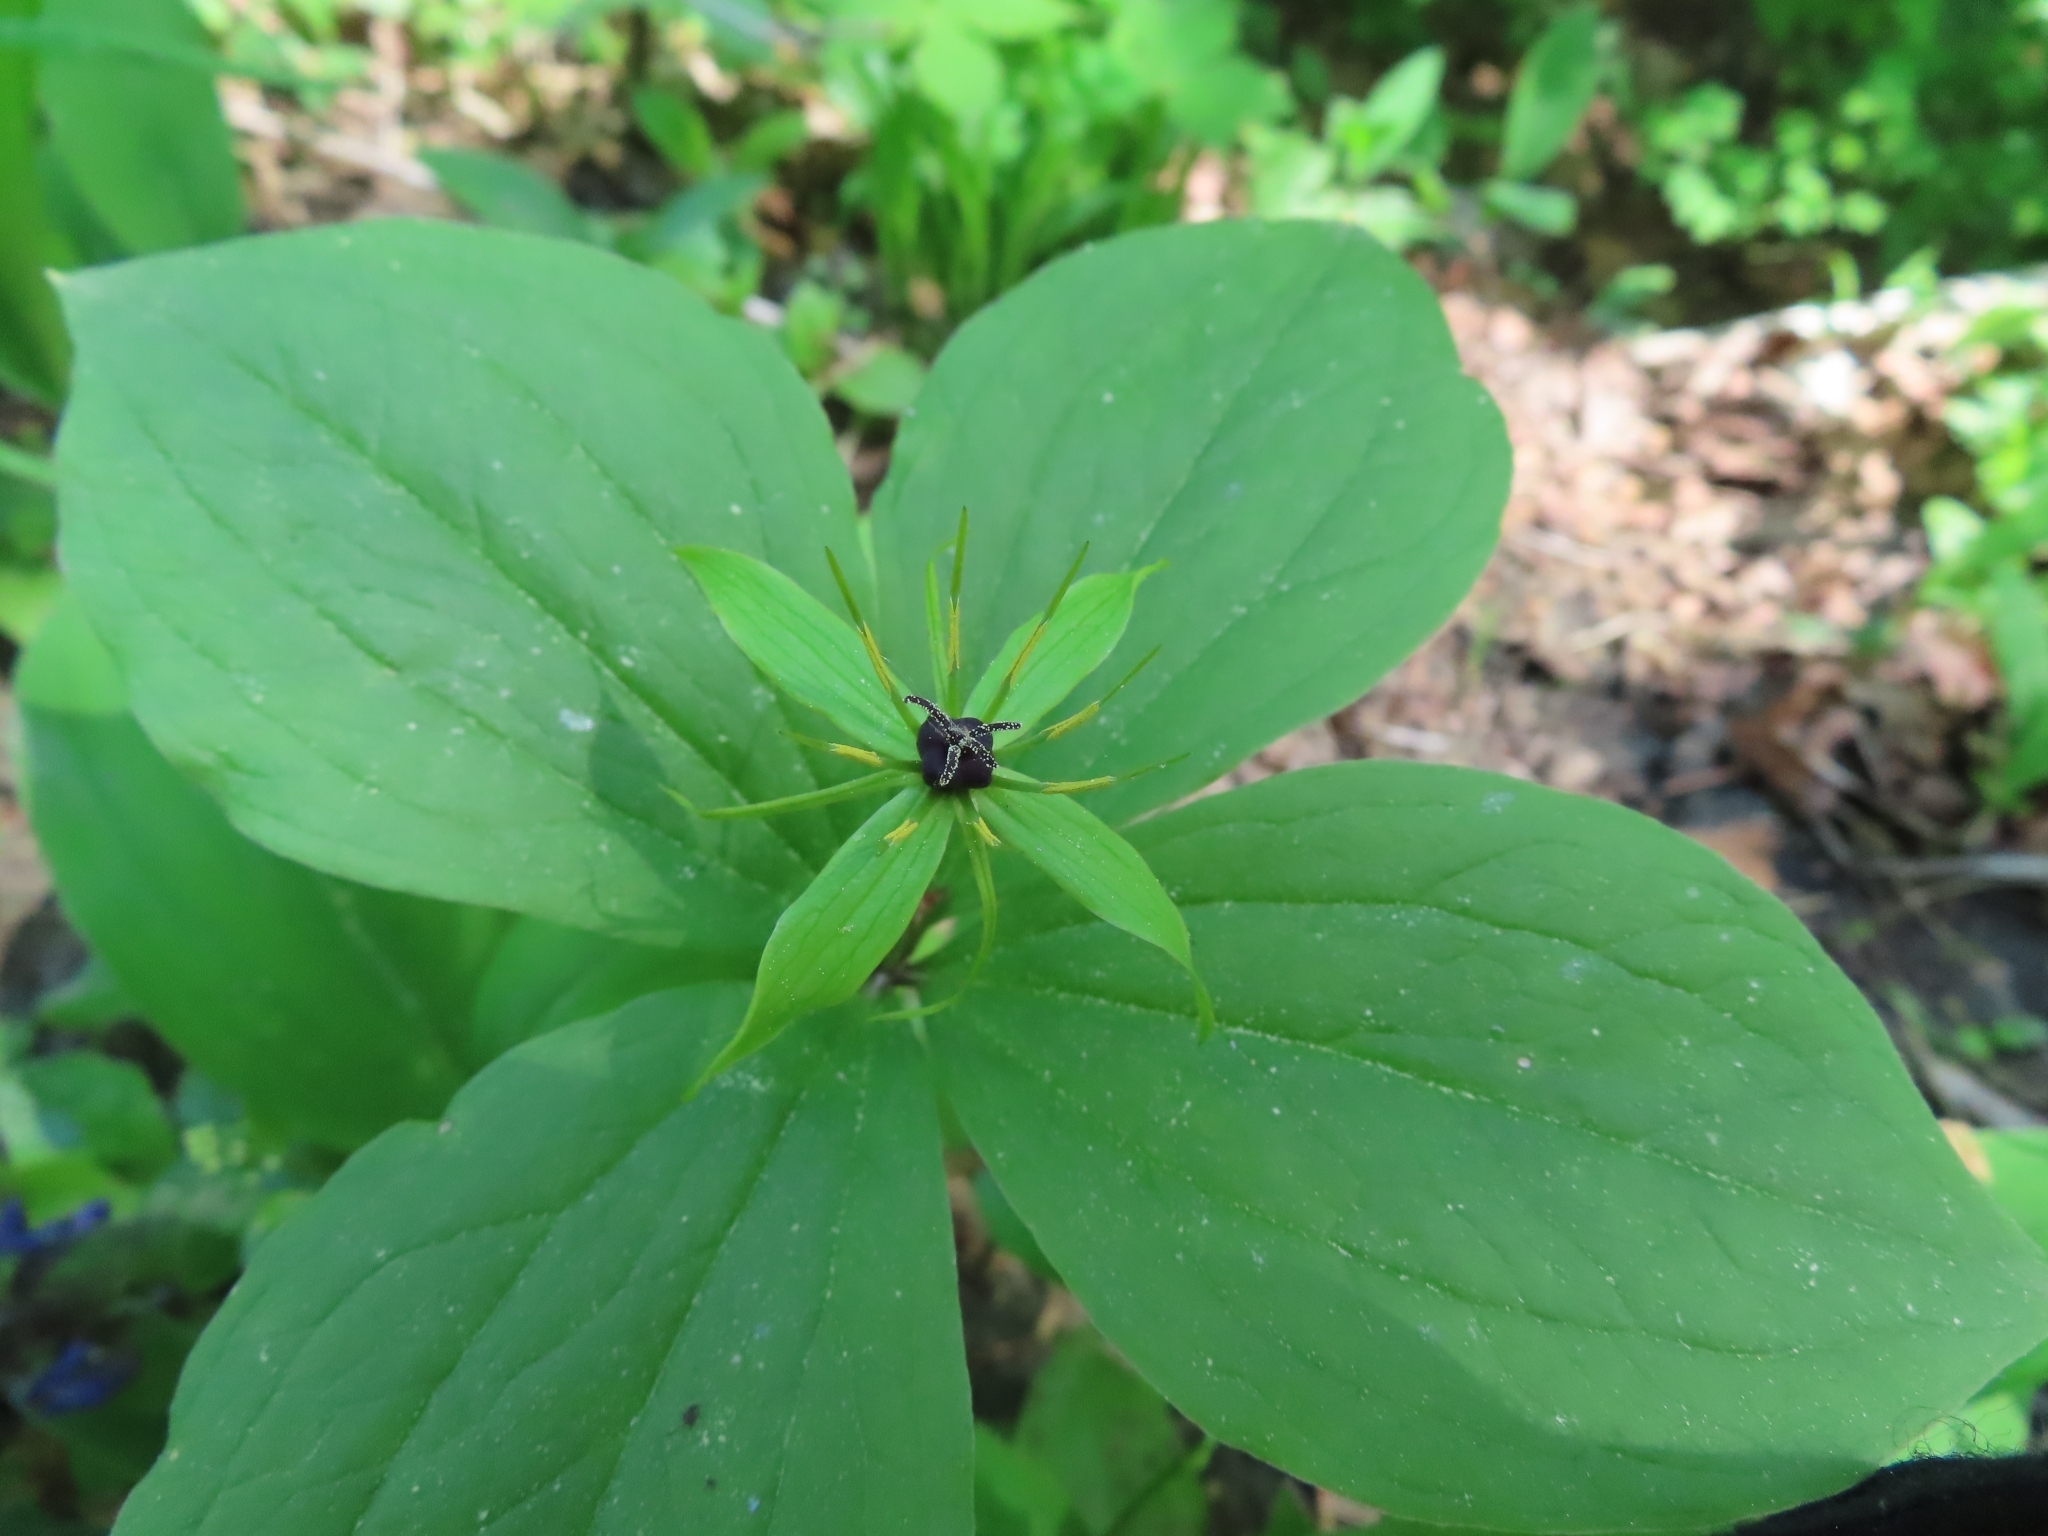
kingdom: Plantae
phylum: Tracheophyta
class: Liliopsida
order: Liliales
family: Melanthiaceae
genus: Paris
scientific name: Paris quadrifolia
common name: Herb-paris
